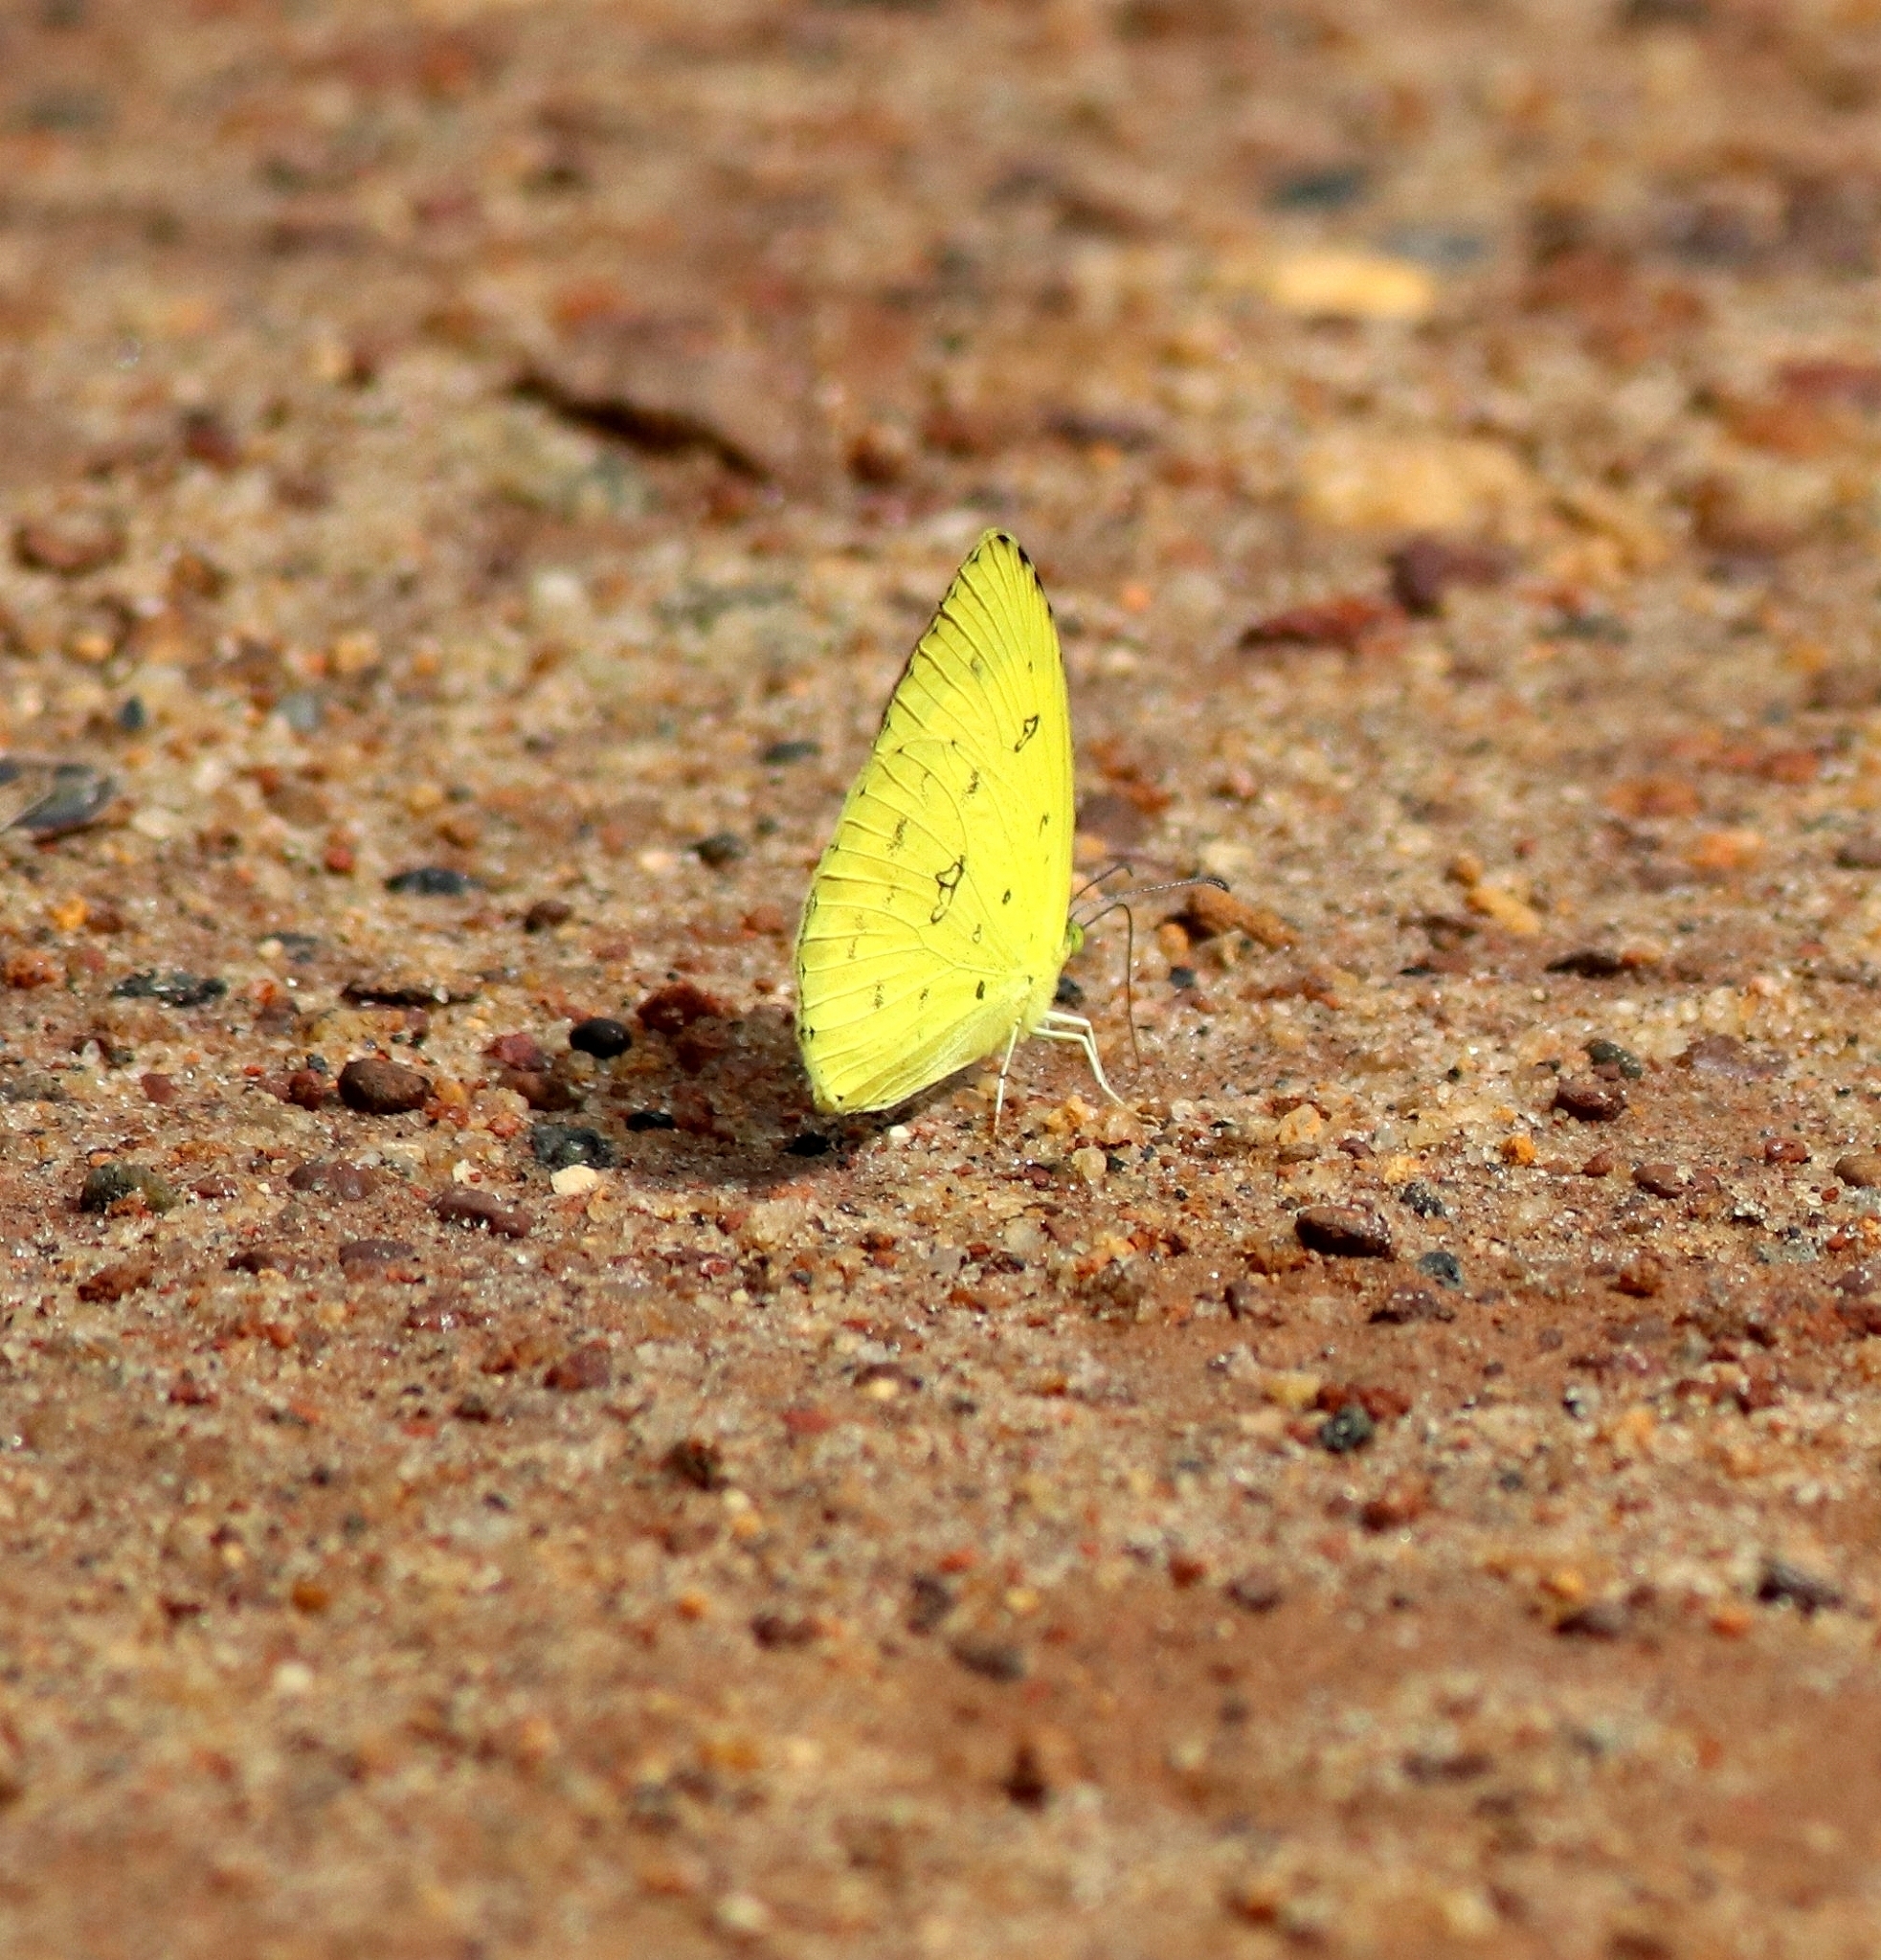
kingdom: Animalia
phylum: Arthropoda
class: Insecta
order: Lepidoptera
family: Pieridae
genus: Eurema
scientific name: Eurema hecabe
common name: Pale grass yellow
